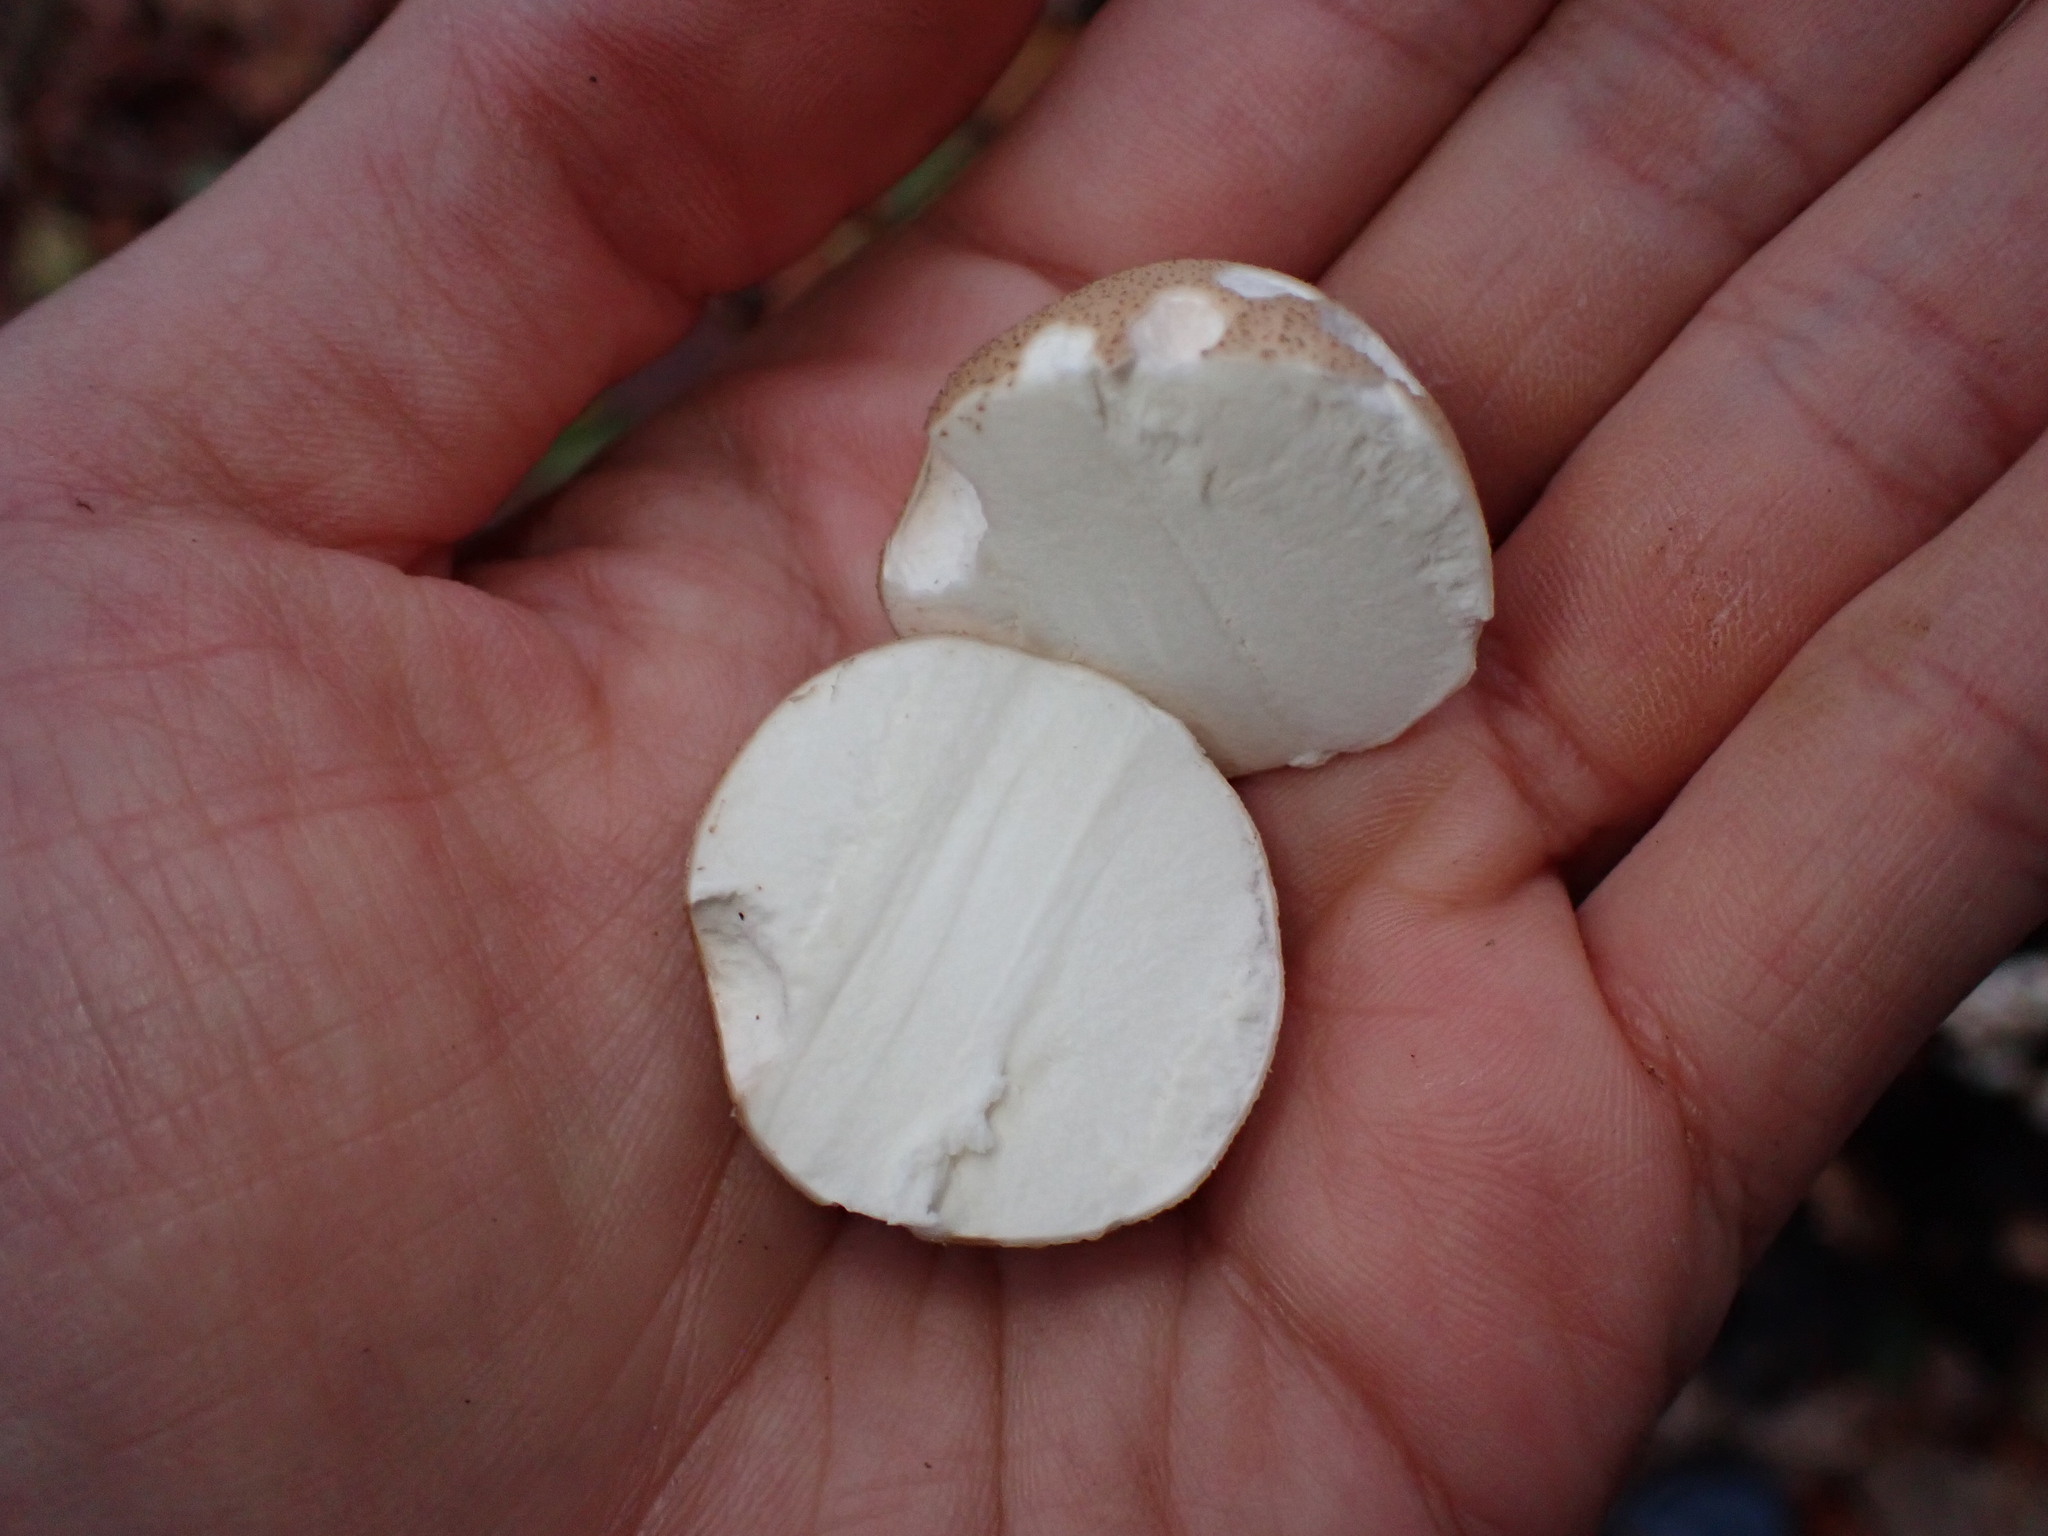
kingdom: Fungi
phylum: Basidiomycota
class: Agaricomycetes
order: Agaricales
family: Lycoperdaceae
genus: Apioperdon
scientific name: Apioperdon pyriforme
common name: Pear-shaped puffball
